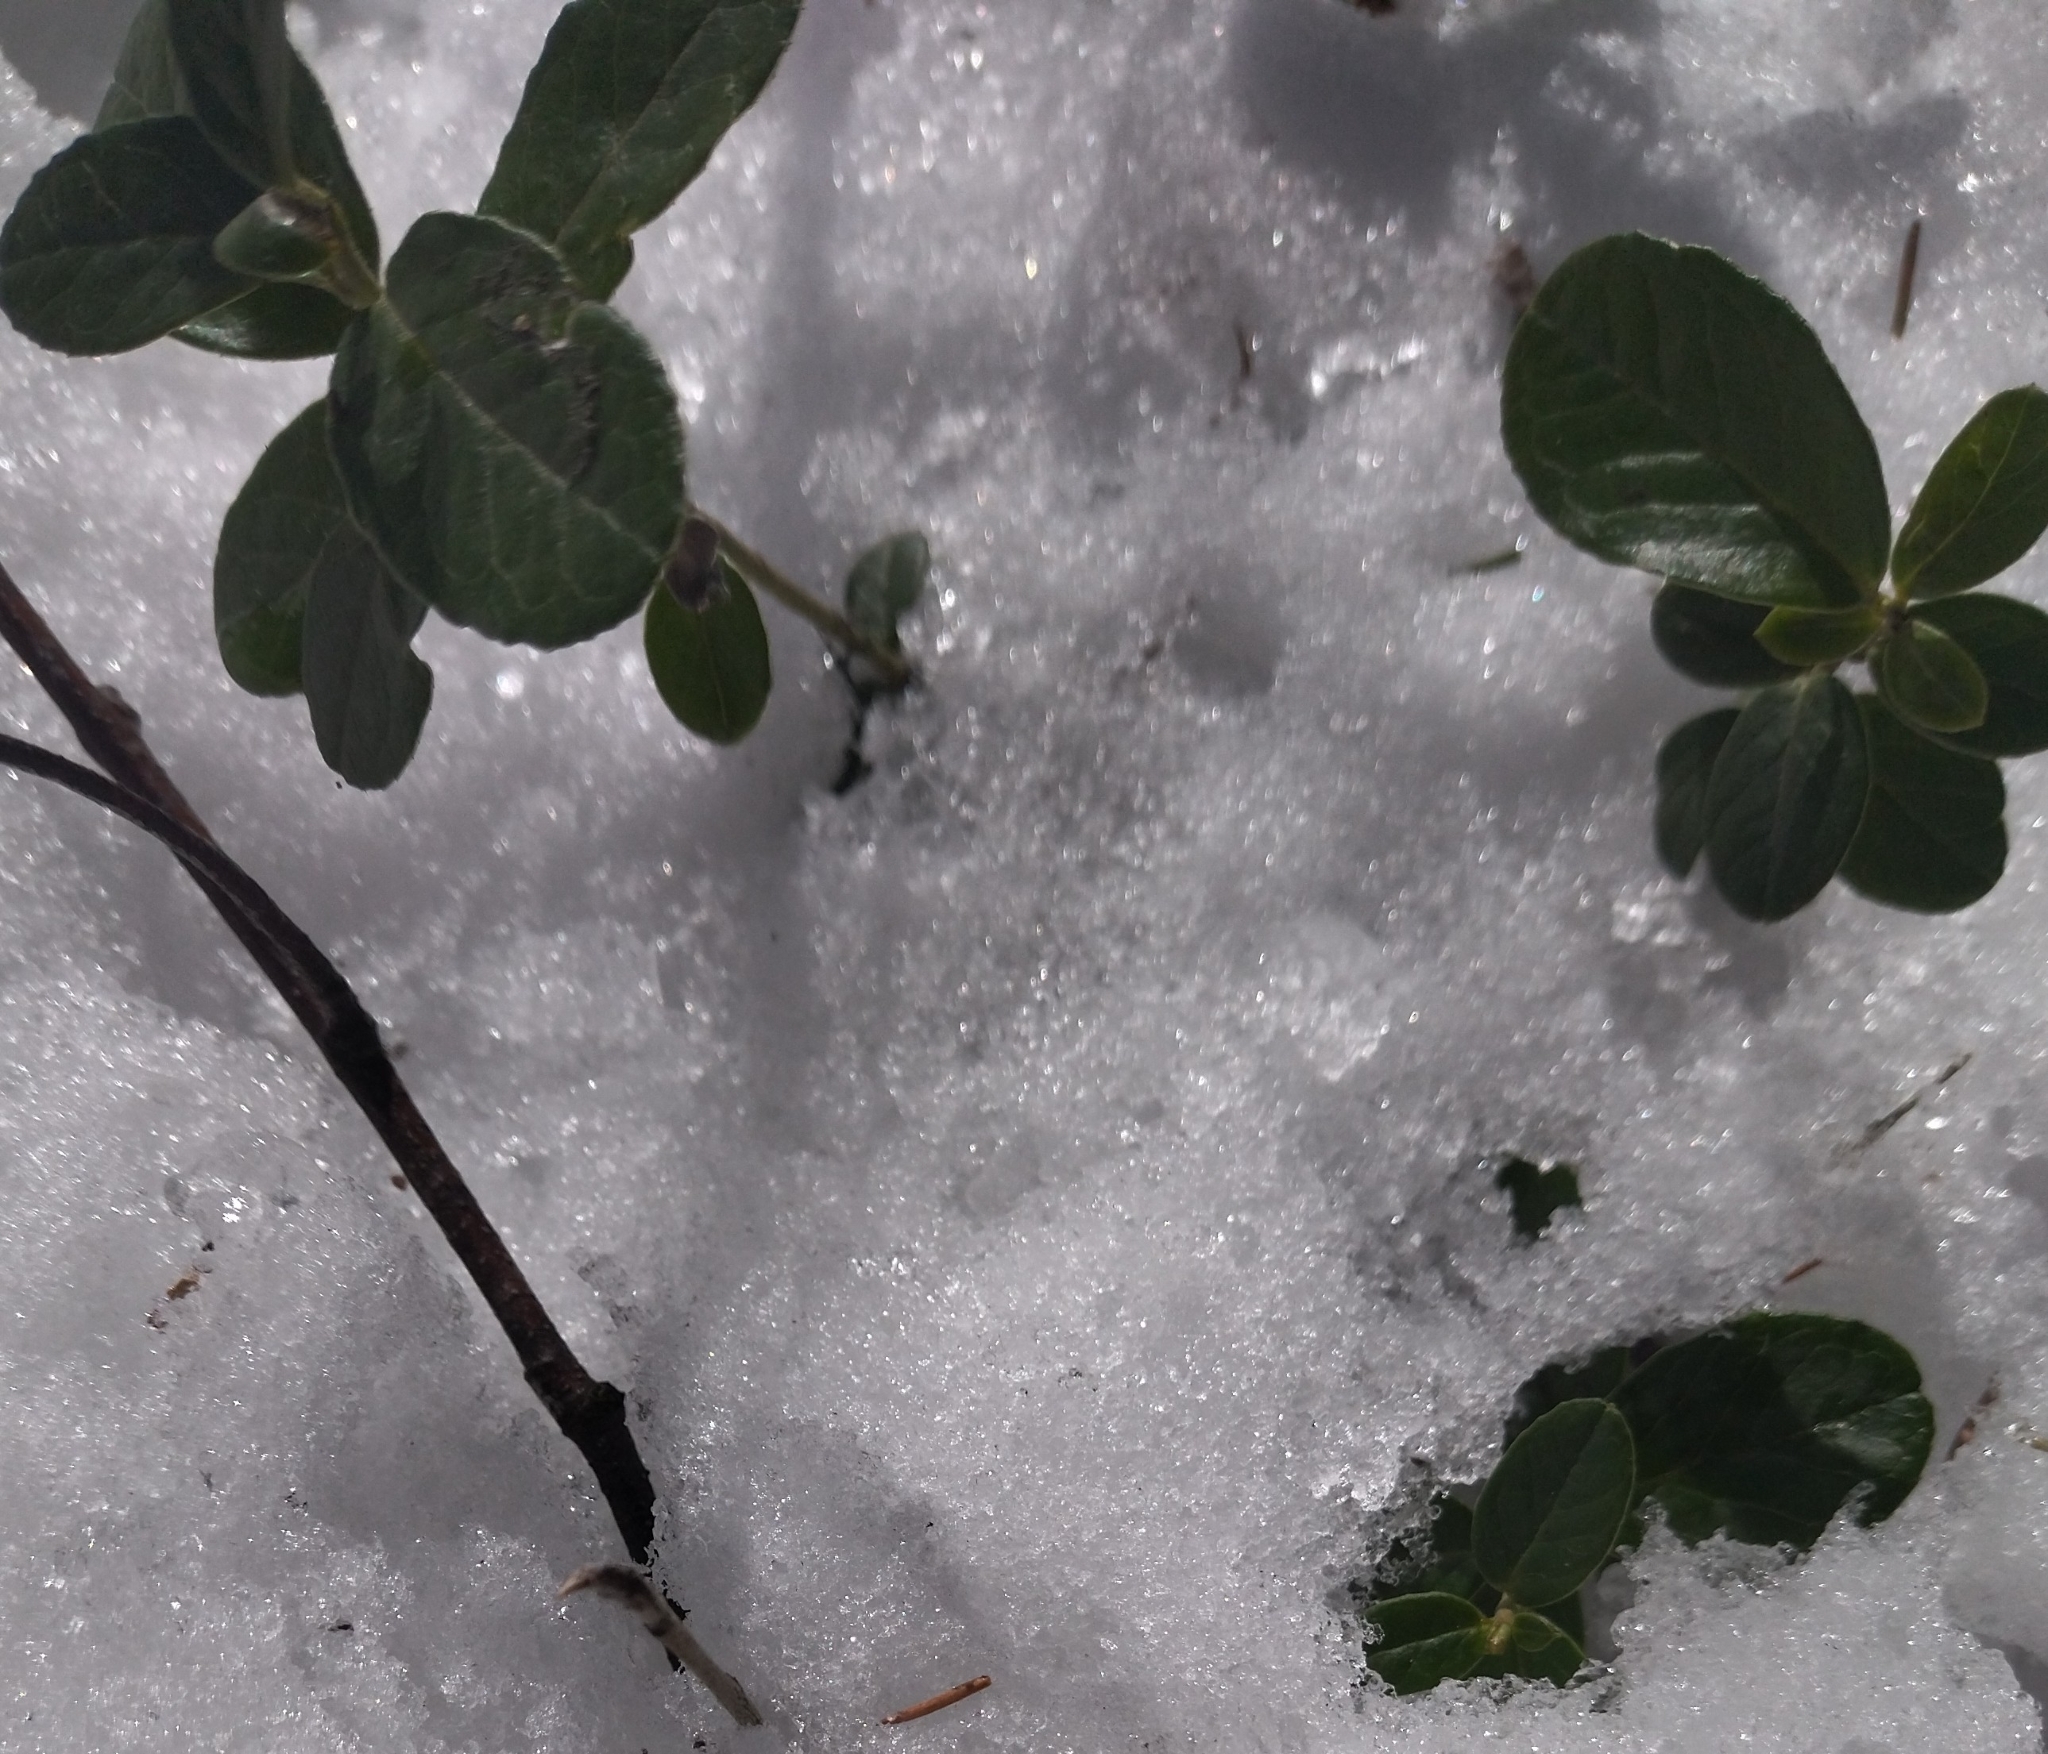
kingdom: Plantae
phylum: Tracheophyta
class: Magnoliopsida
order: Ericales
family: Ericaceae
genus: Vaccinium
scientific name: Vaccinium vitis-idaea
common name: Cowberry
